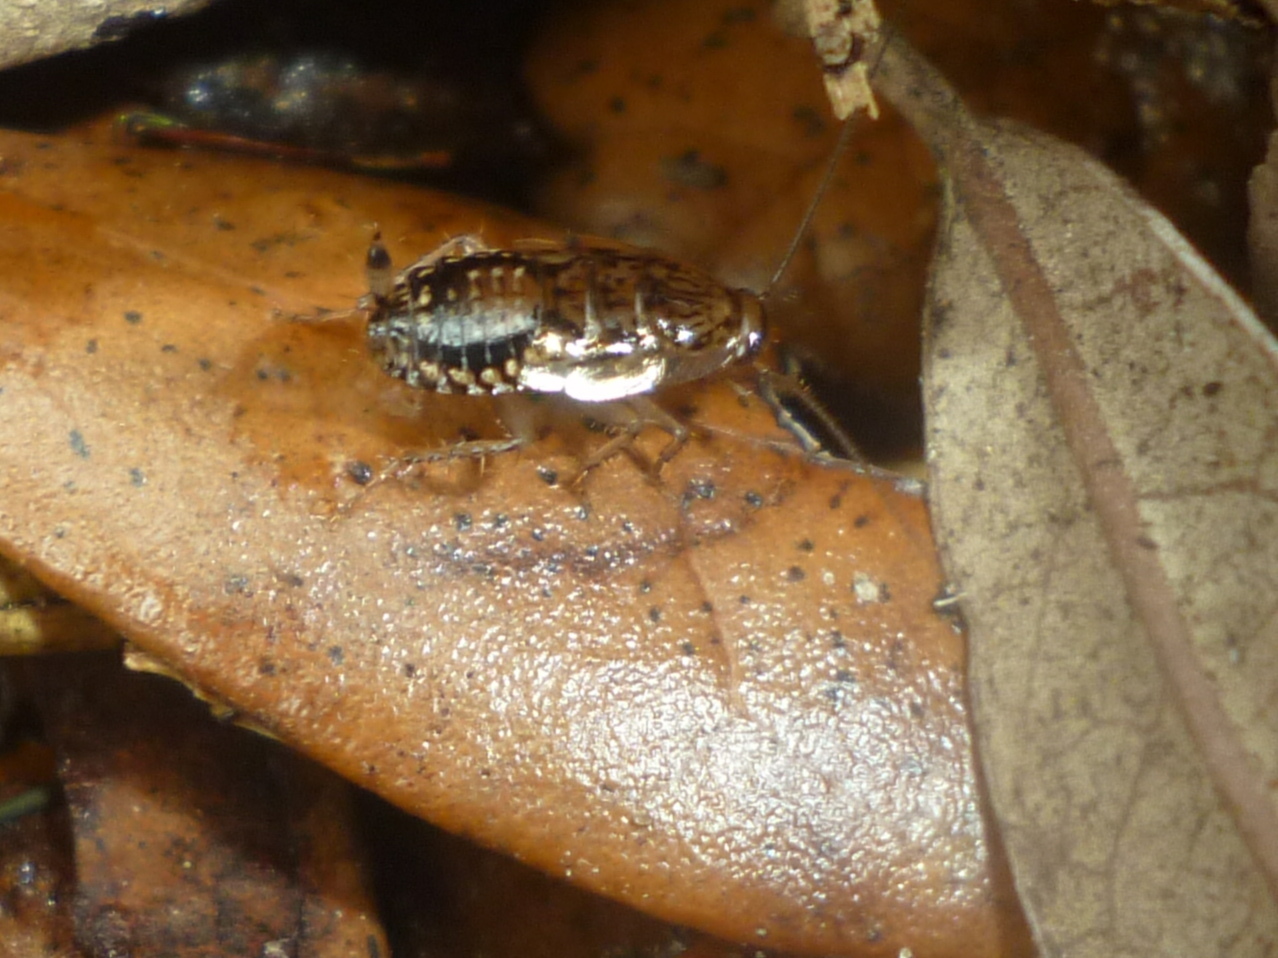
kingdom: Animalia
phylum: Arthropoda
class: Insecta
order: Blattodea
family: Ectobiidae
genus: Cariblatta
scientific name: Cariblatta lutea
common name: Small yellow cockroach
